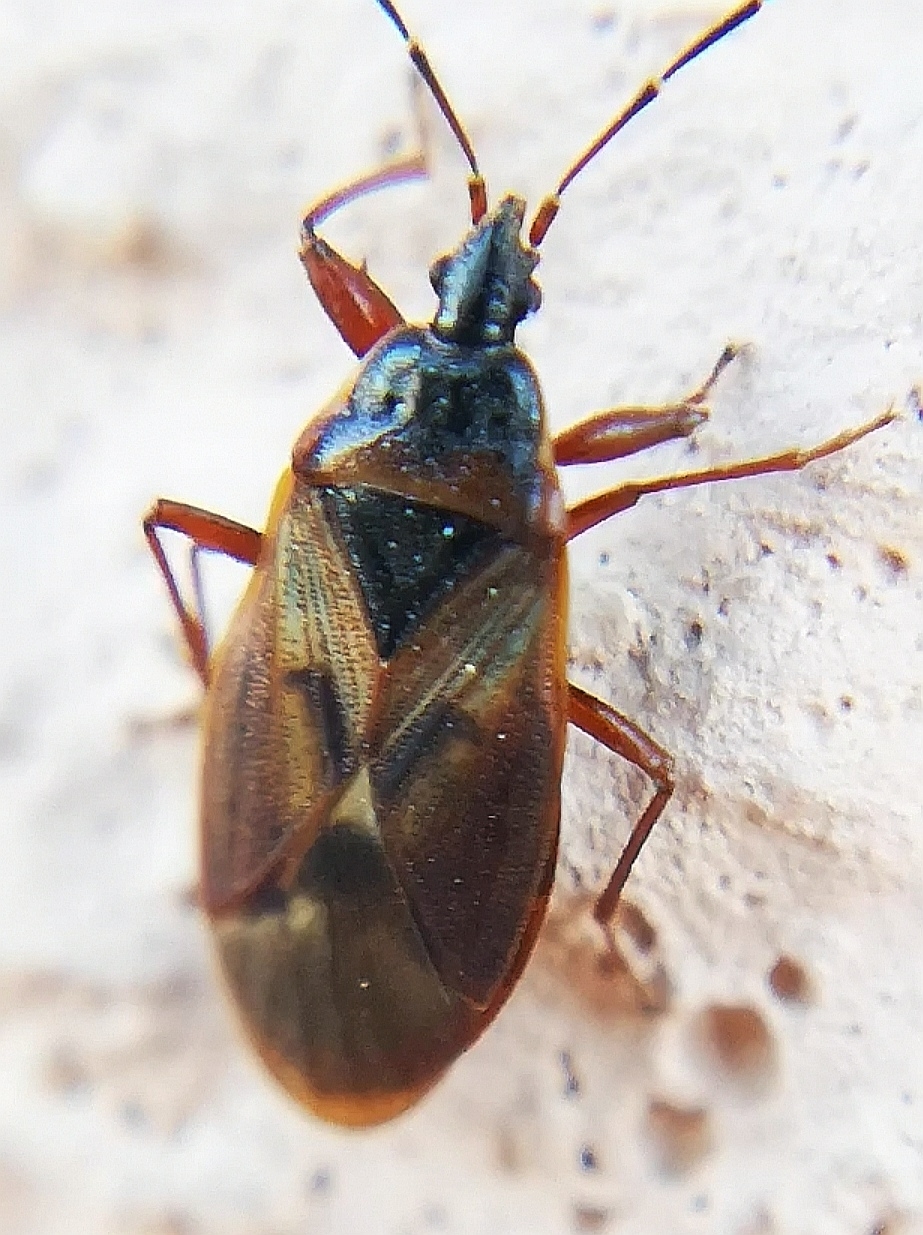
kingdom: Animalia
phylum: Arthropoda
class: Insecta
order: Hemiptera
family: Rhyparochromidae
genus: Gastrodes
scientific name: Gastrodes abietum
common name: Spruce cone bug
